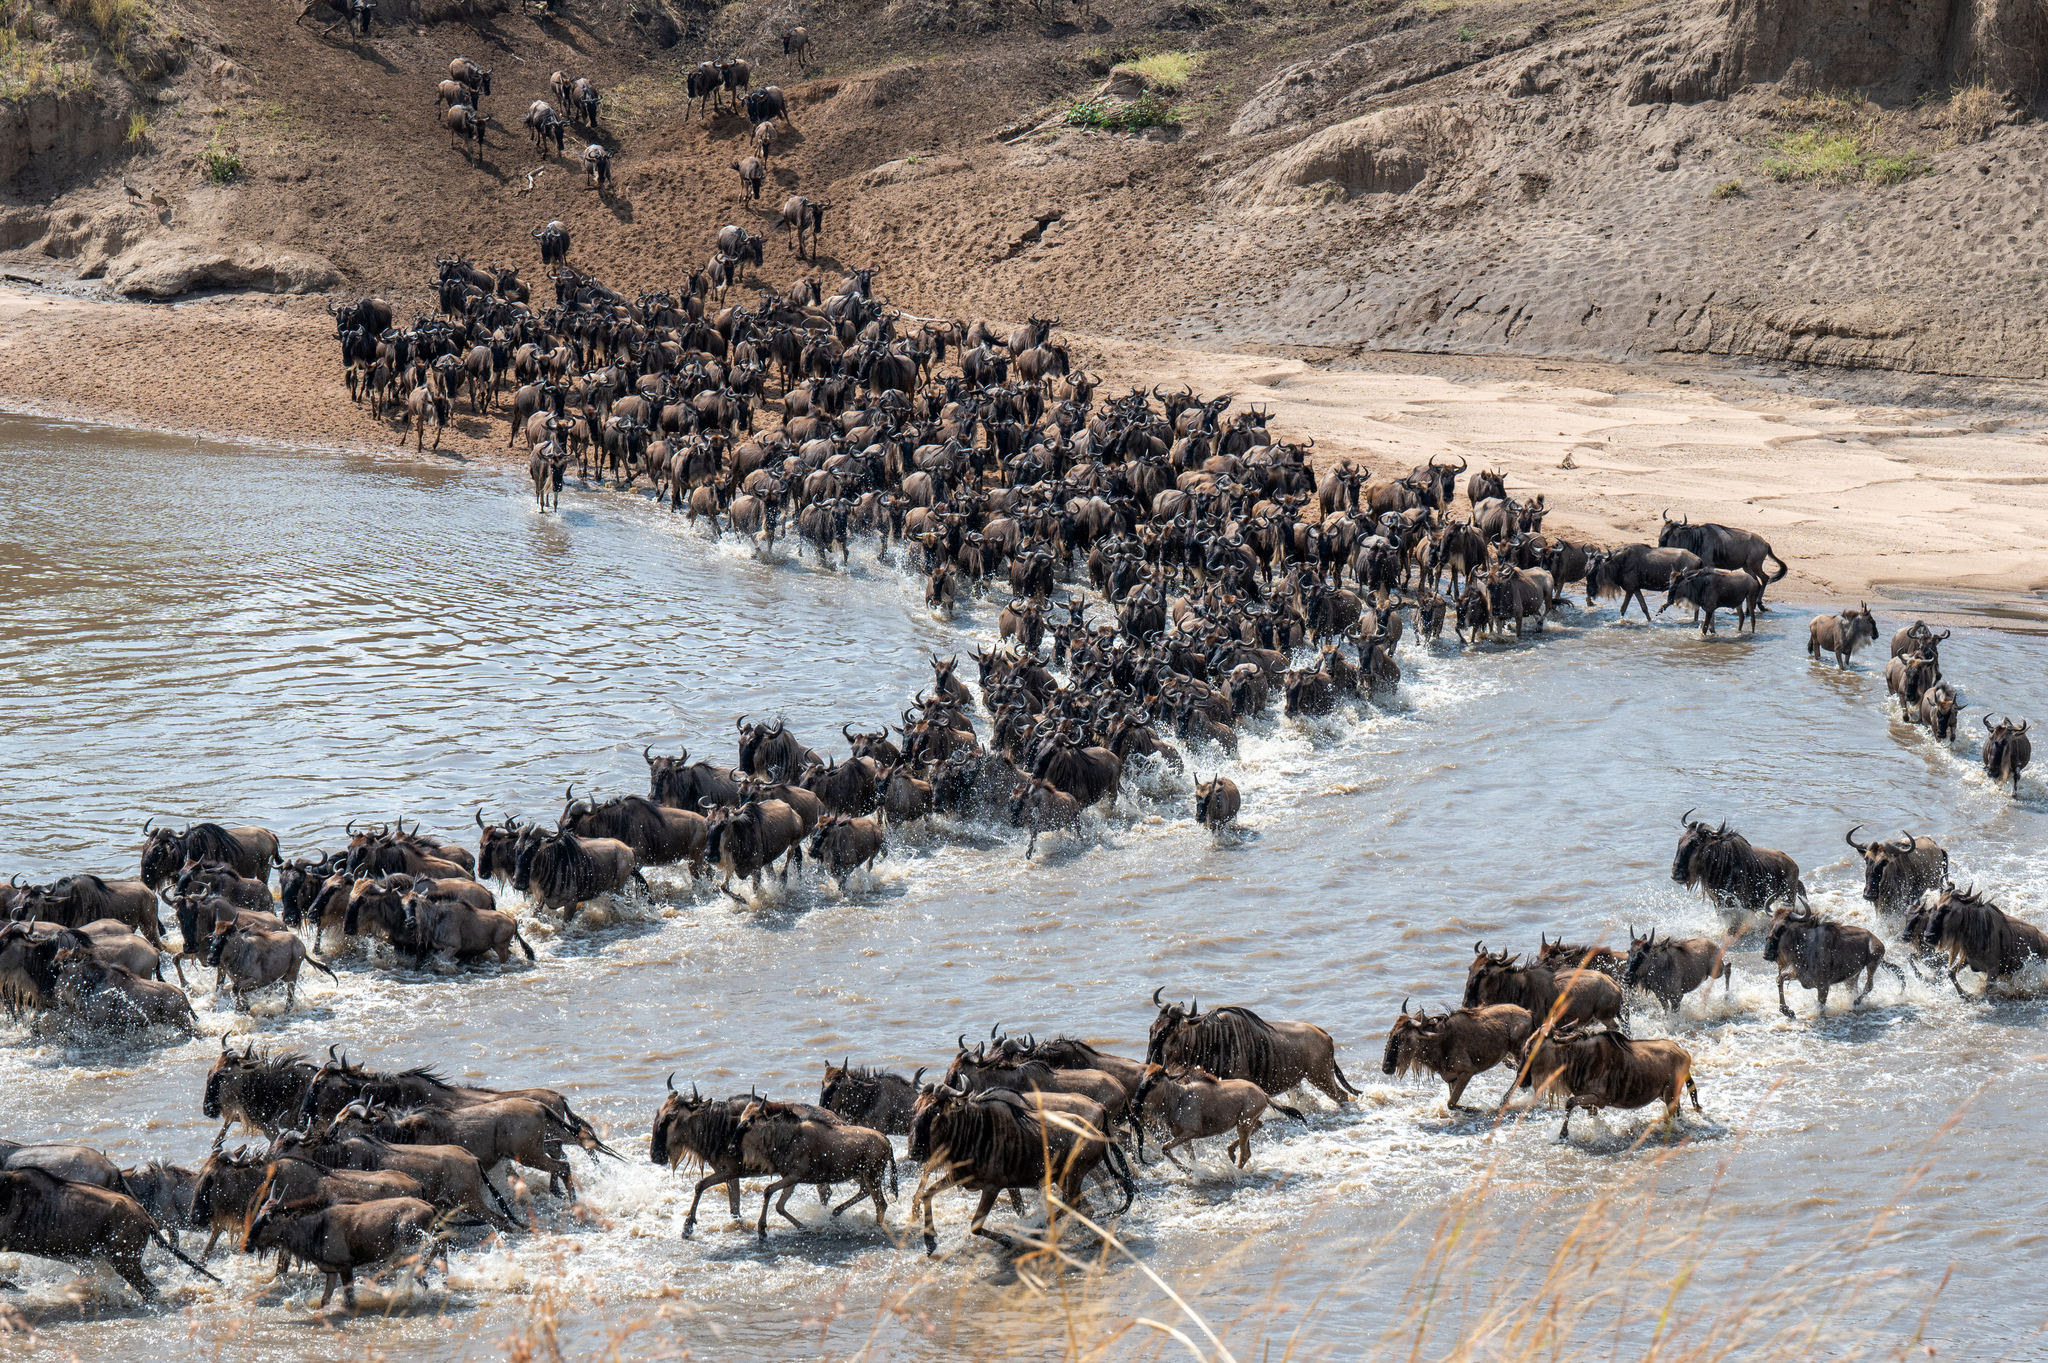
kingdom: Animalia
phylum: Chordata
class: Mammalia
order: Artiodactyla
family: Bovidae
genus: Connochaetes
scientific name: Connochaetes taurinus
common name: Blue wildebeest
